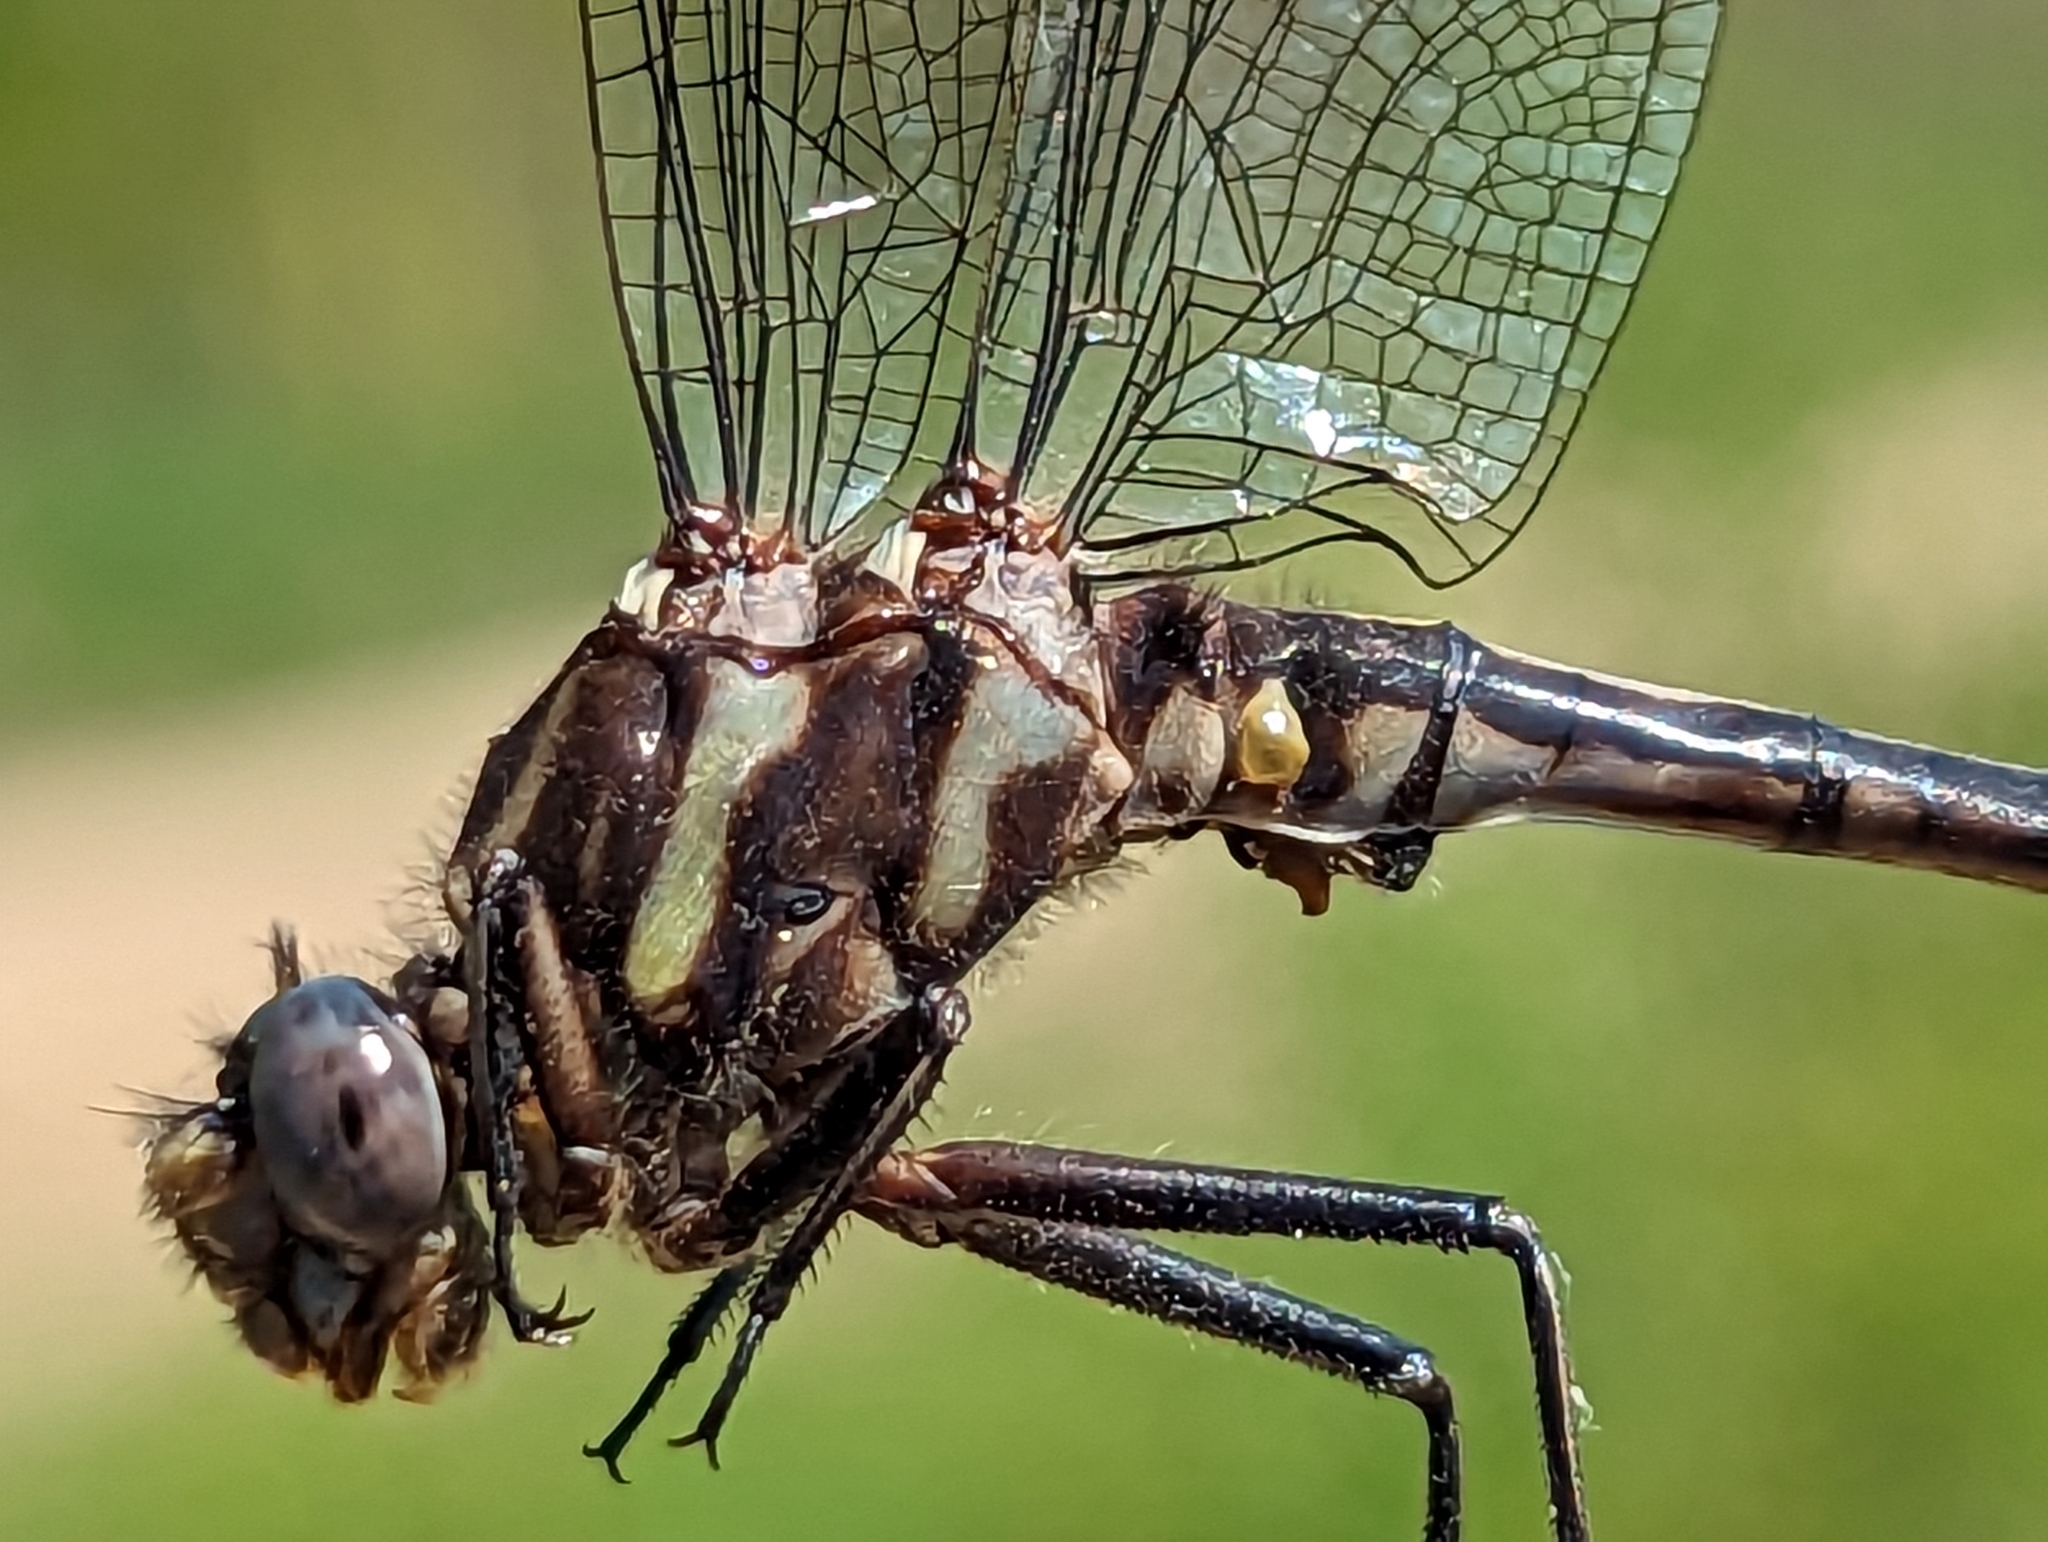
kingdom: Animalia
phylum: Arthropoda
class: Insecta
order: Odonata
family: Gomphidae
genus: Phanogomphus
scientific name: Phanogomphus spicatus
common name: Dusky clubtail
